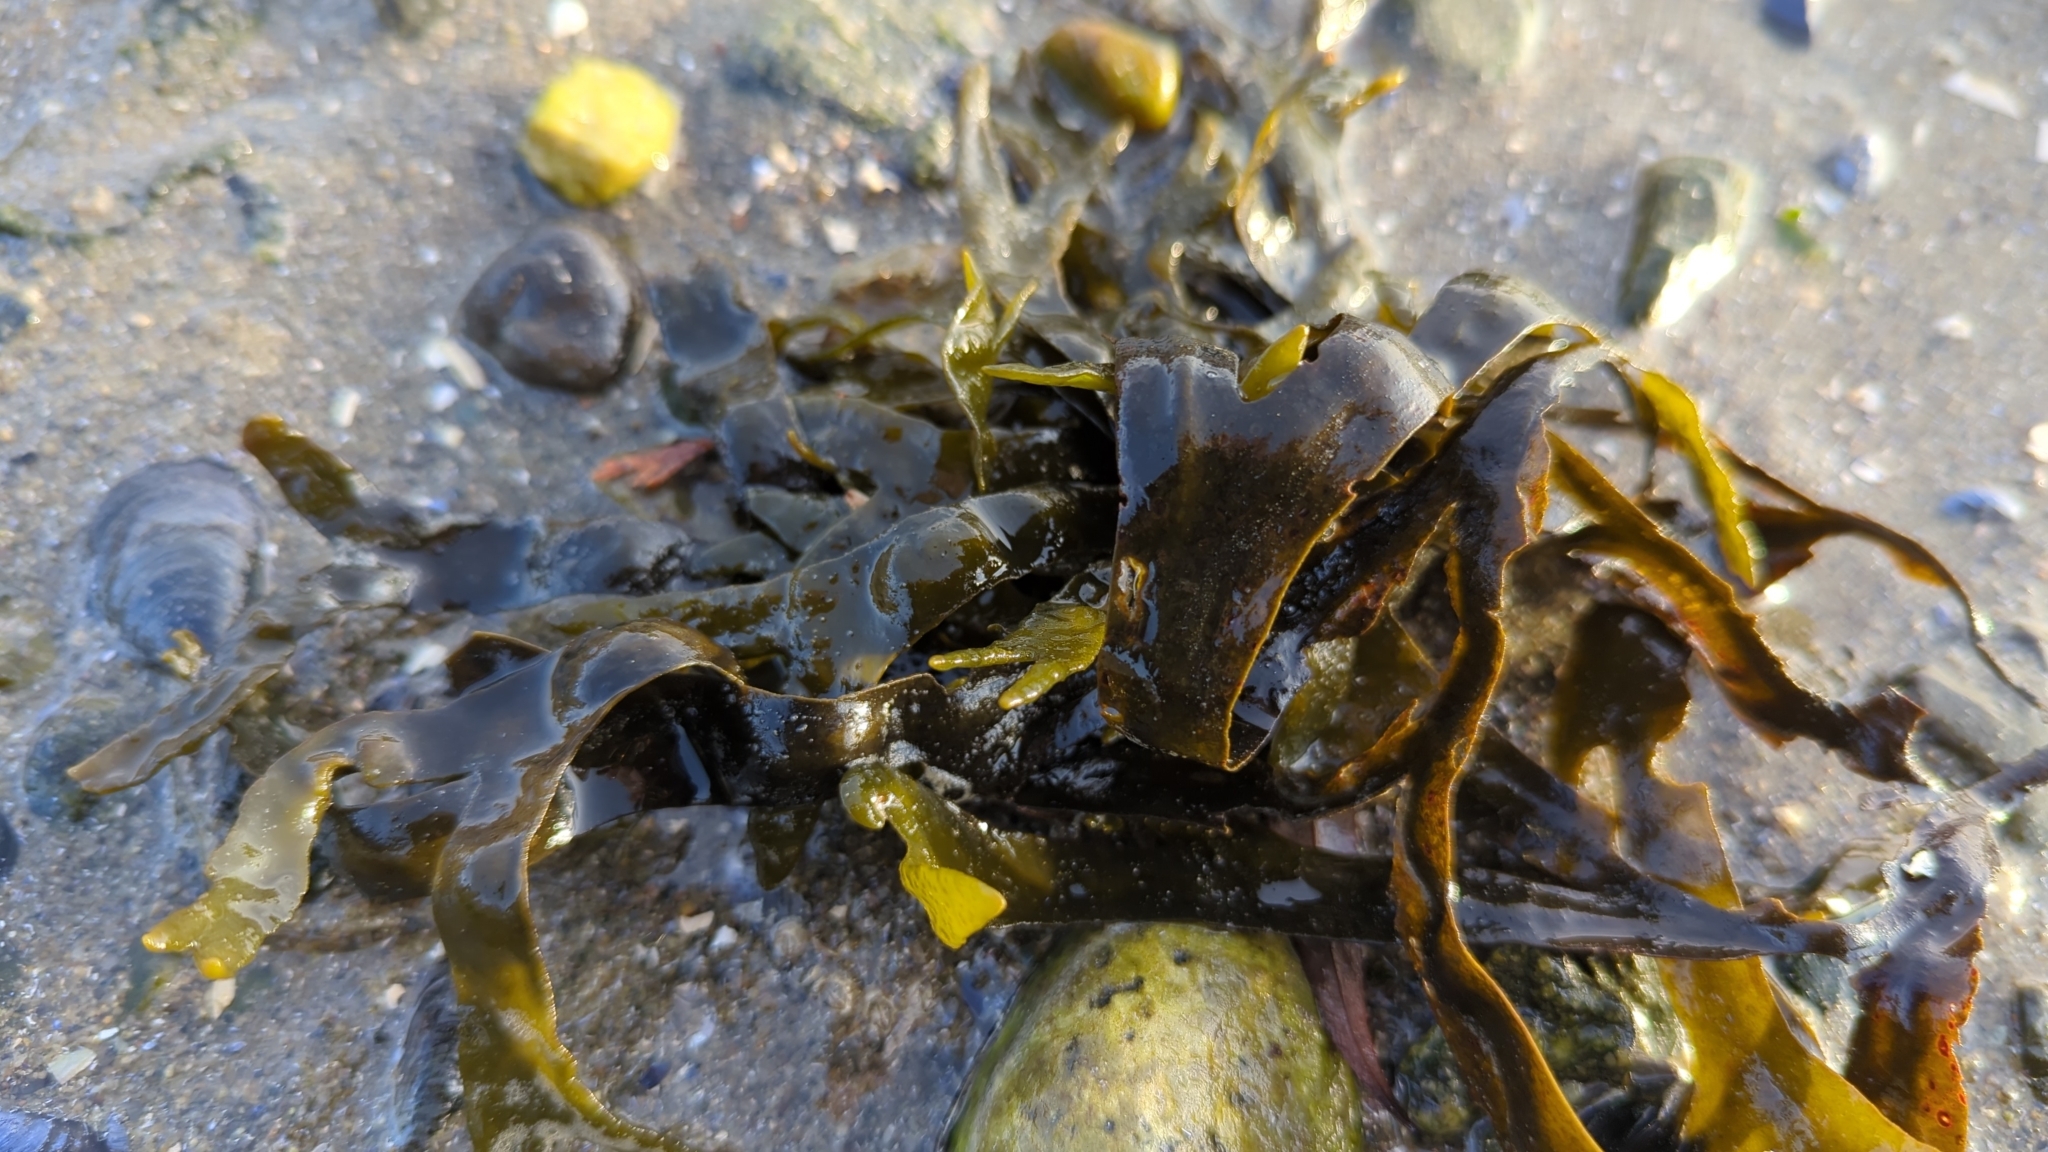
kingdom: Chromista
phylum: Ochrophyta
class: Phaeophyceae
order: Fucales
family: Fucaceae
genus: Fucus
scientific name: Fucus distichus
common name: Rockweed
